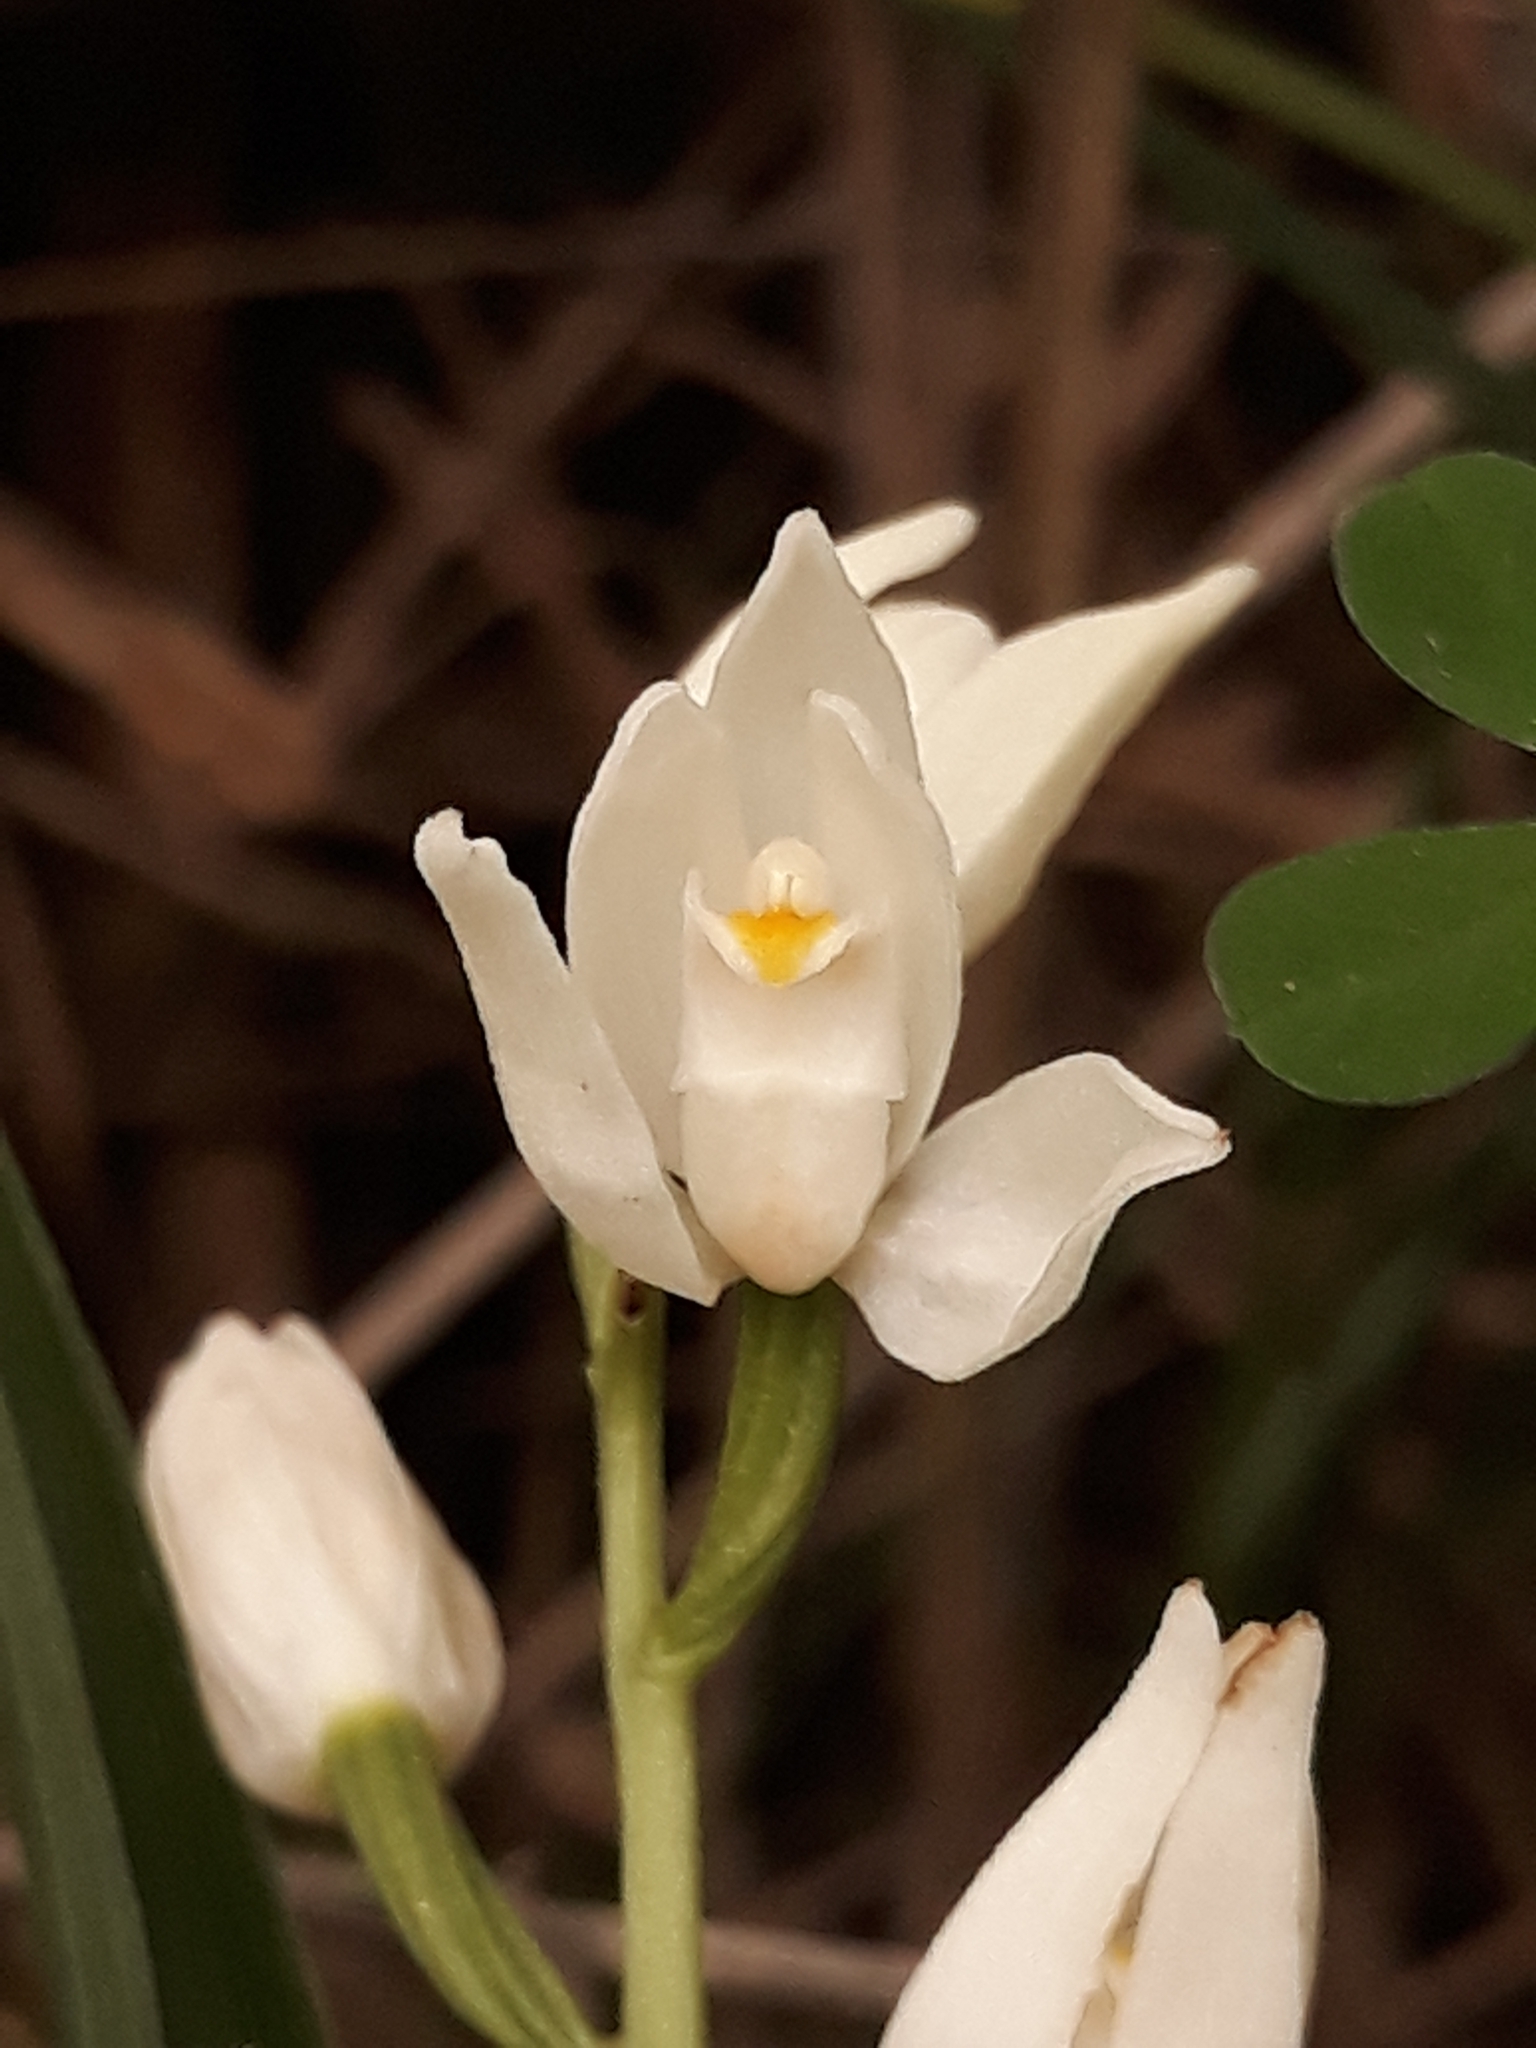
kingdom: Plantae
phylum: Tracheophyta
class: Liliopsida
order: Asparagales
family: Orchidaceae
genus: Cephalanthera
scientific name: Cephalanthera longifolia
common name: Narrow-leaved helleborine
